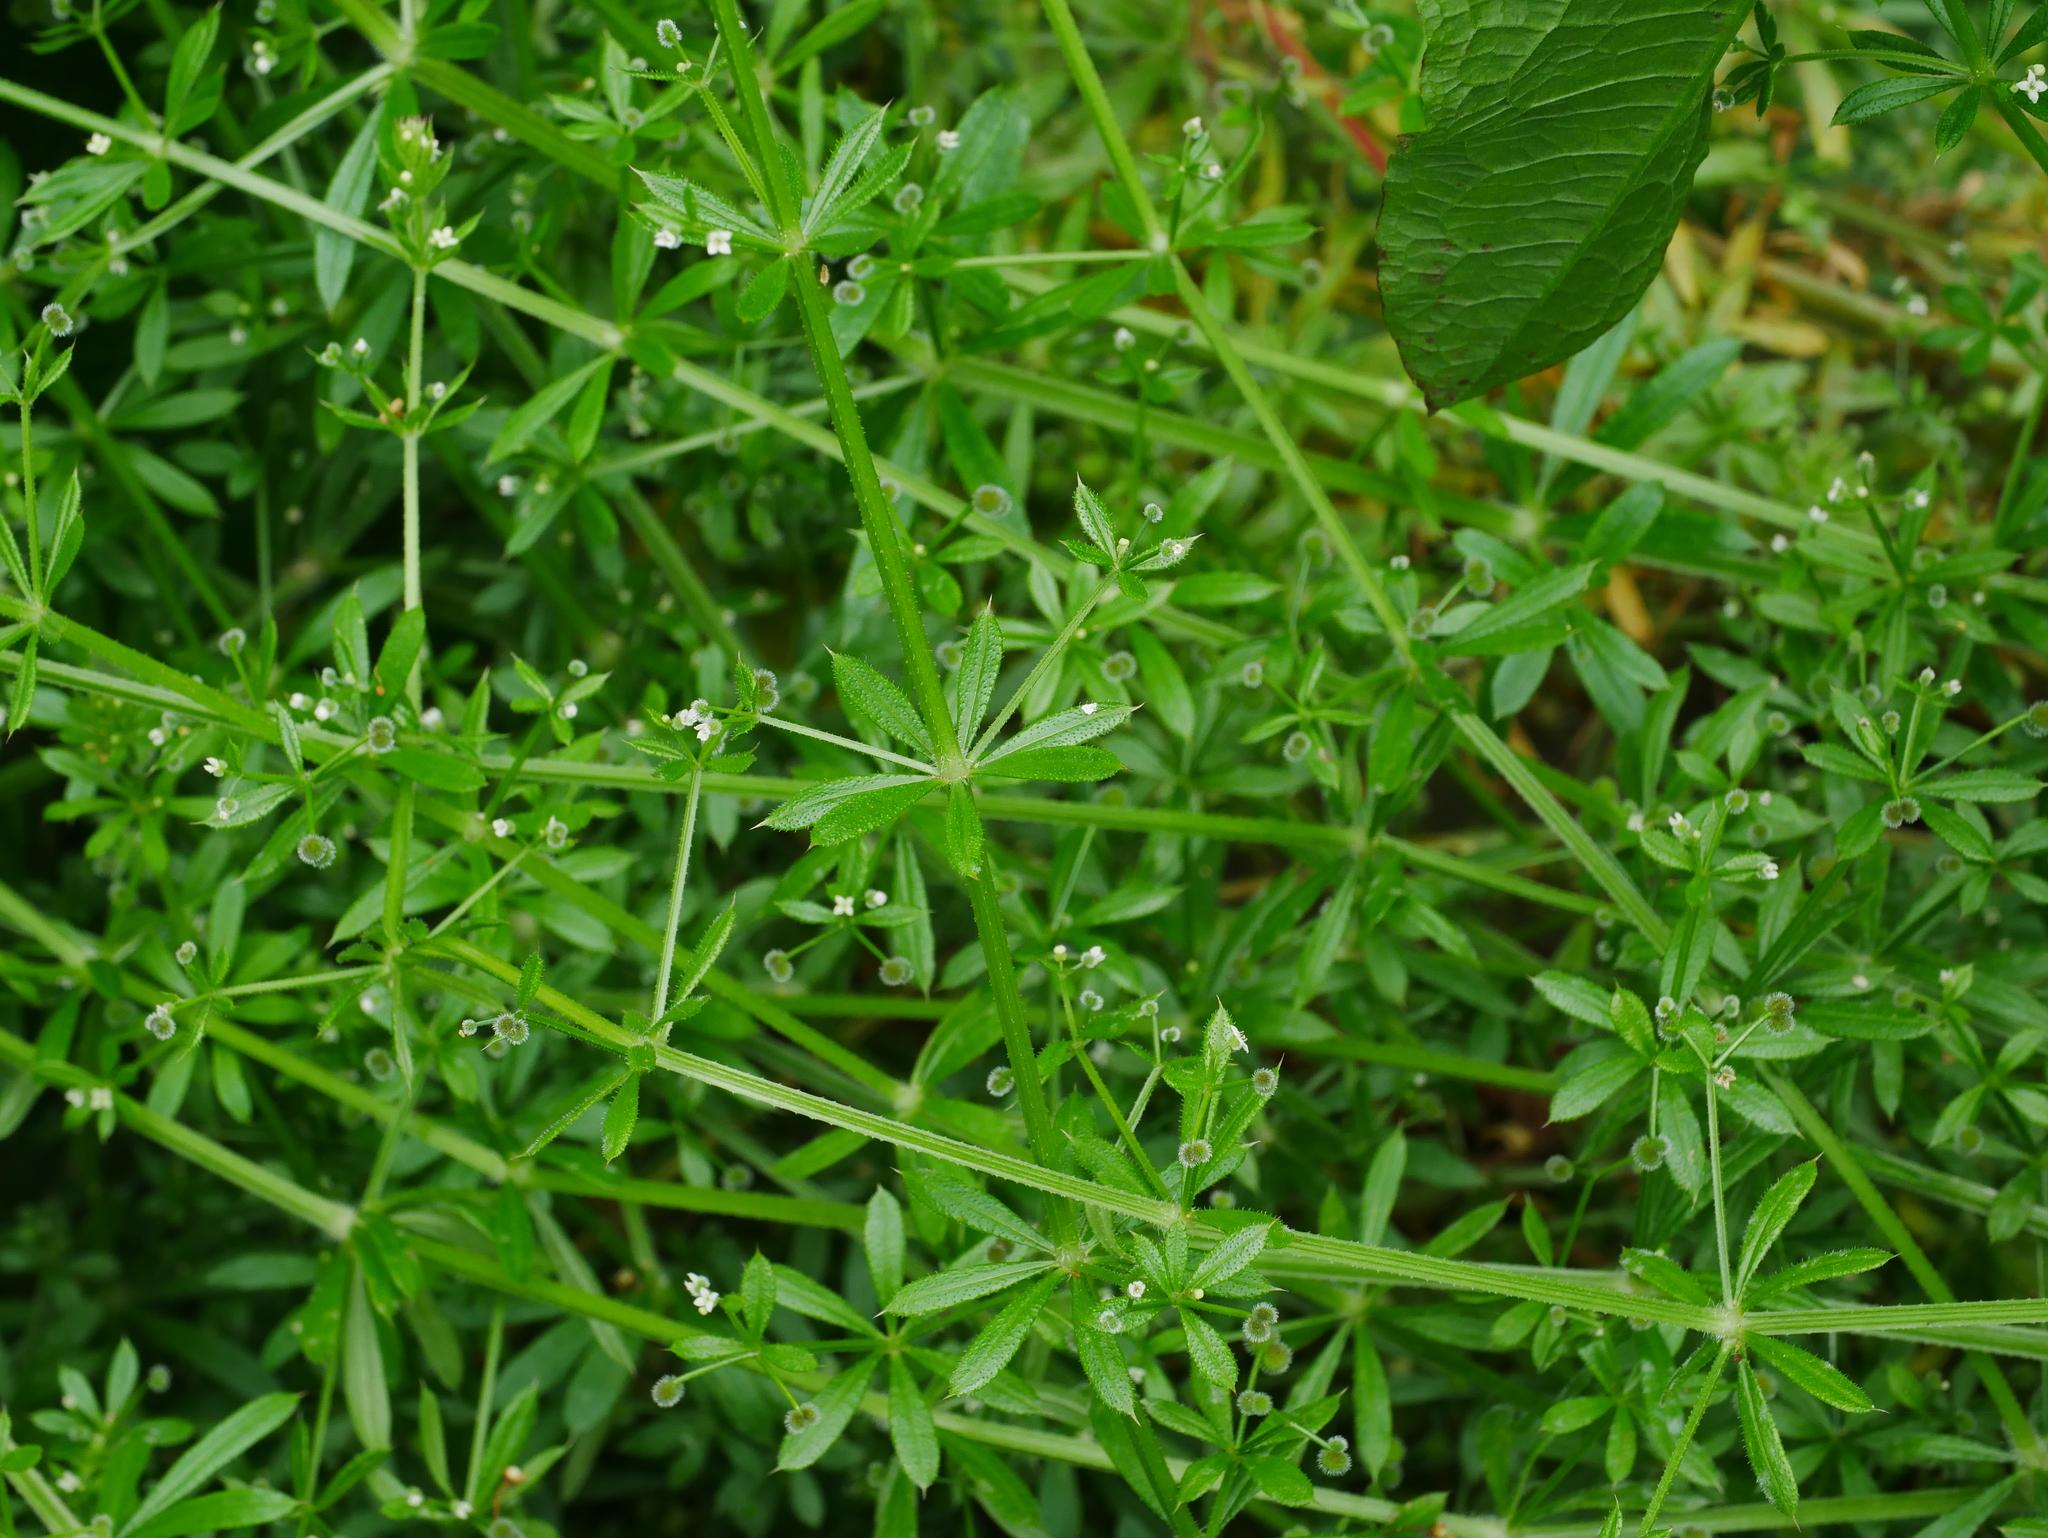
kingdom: Plantae
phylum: Tracheophyta
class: Magnoliopsida
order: Gentianales
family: Rubiaceae
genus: Galium
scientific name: Galium aparine
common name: Cleavers
